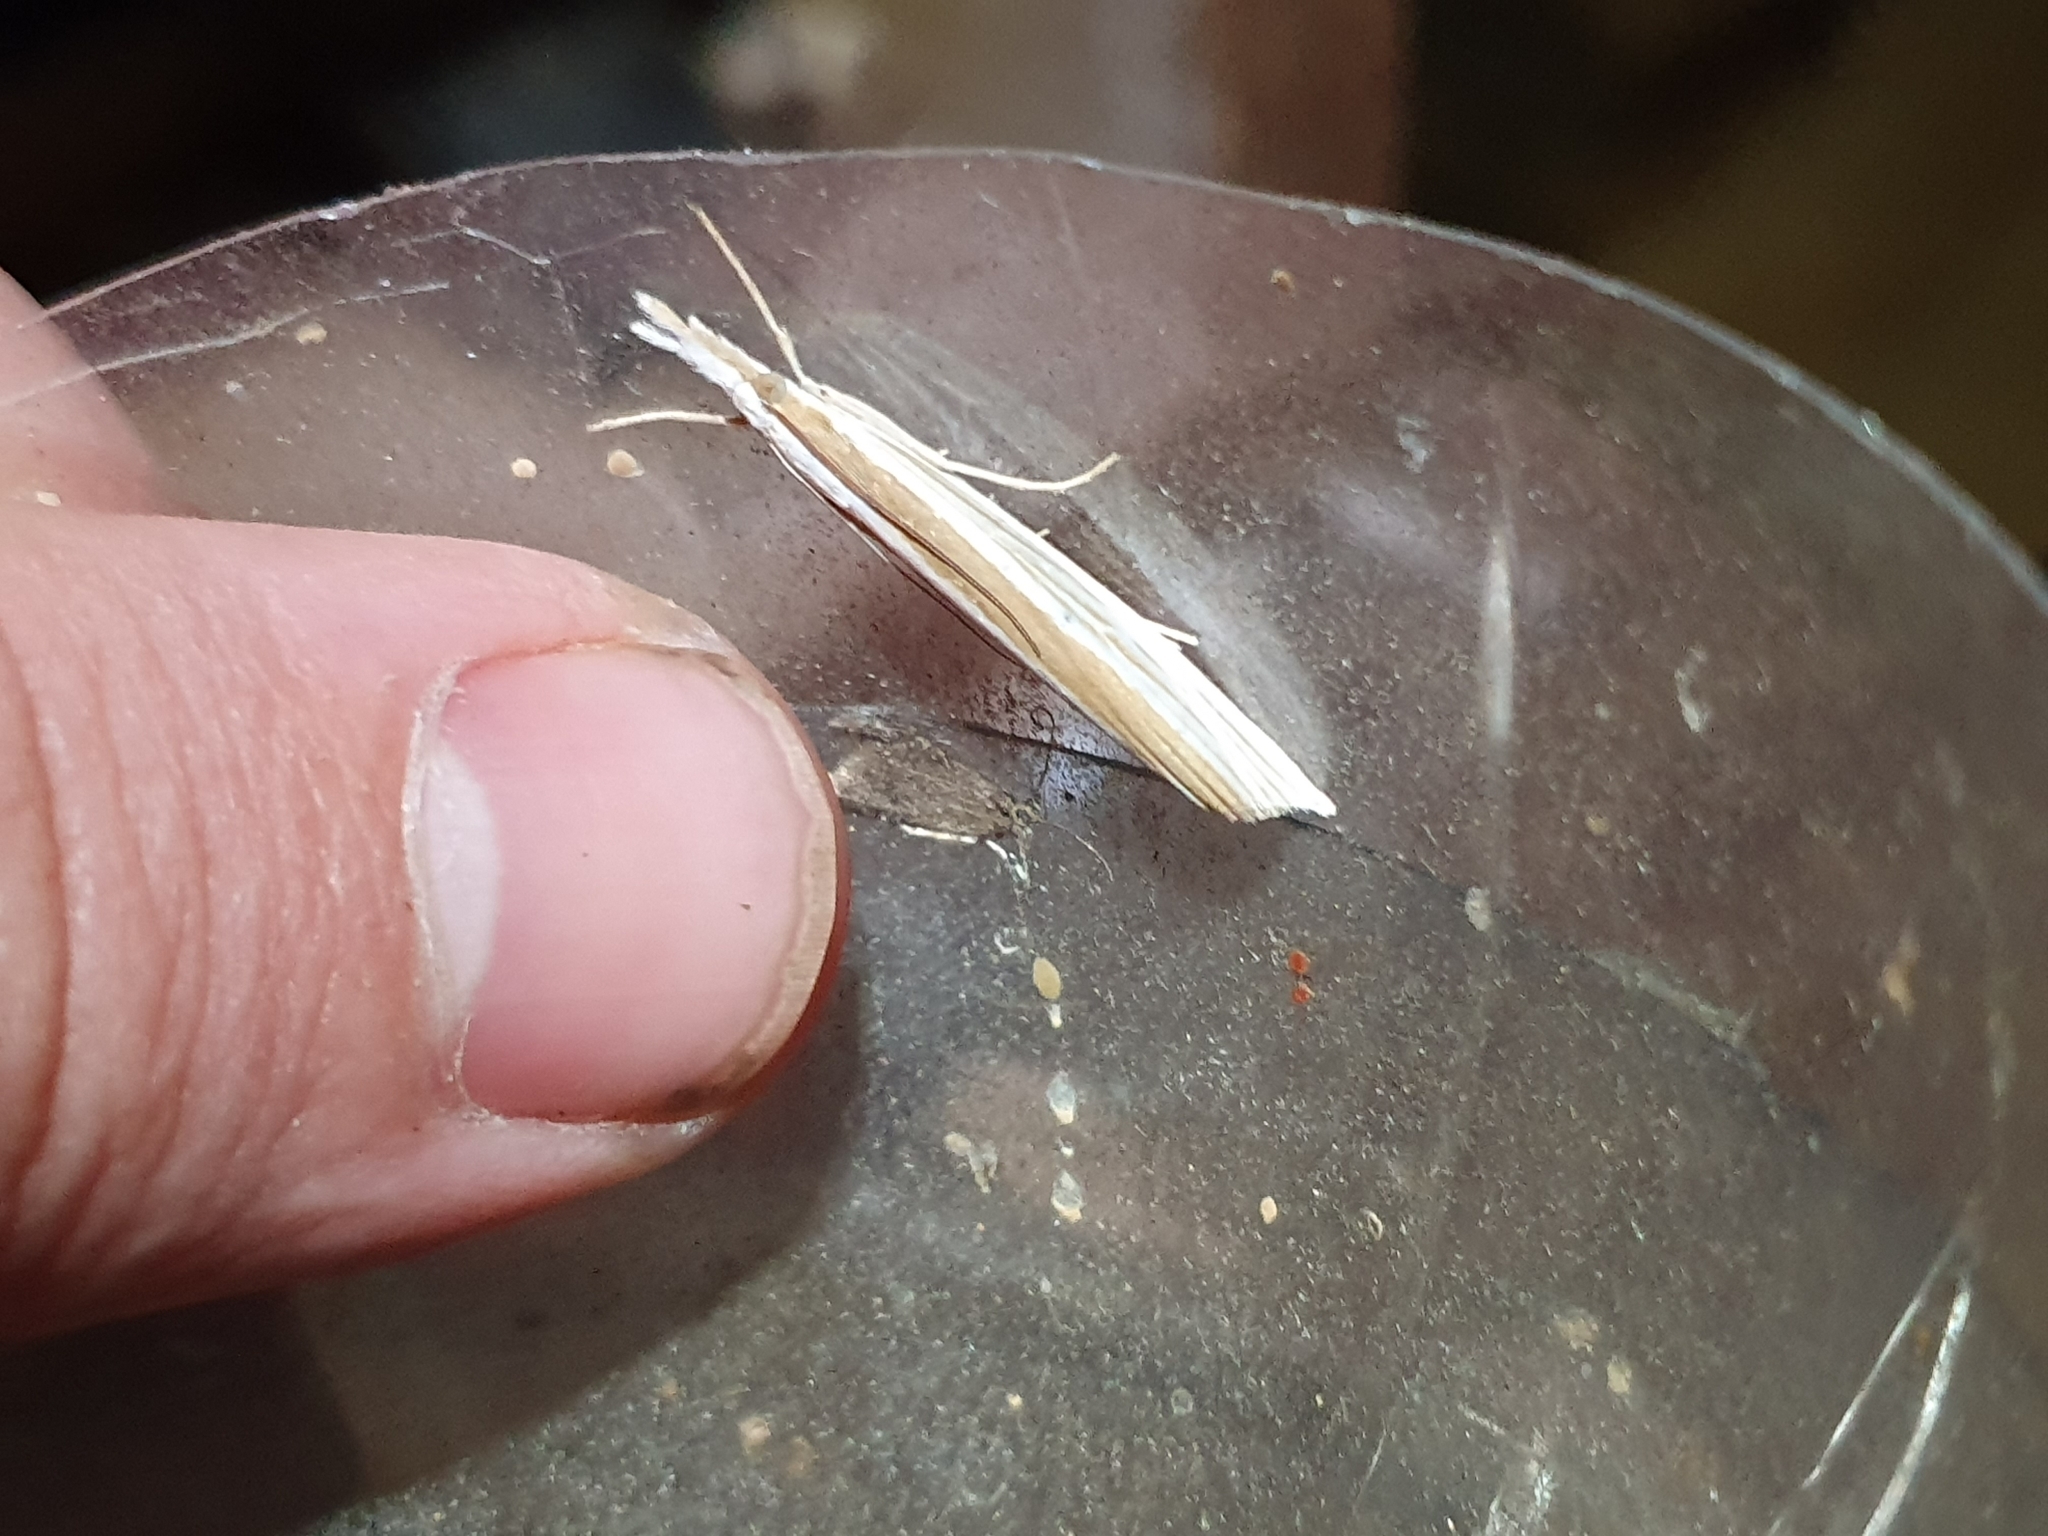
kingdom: Animalia
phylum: Arthropoda
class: Insecta
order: Lepidoptera
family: Crambidae
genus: Orocrambus
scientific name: Orocrambus angustipennis
